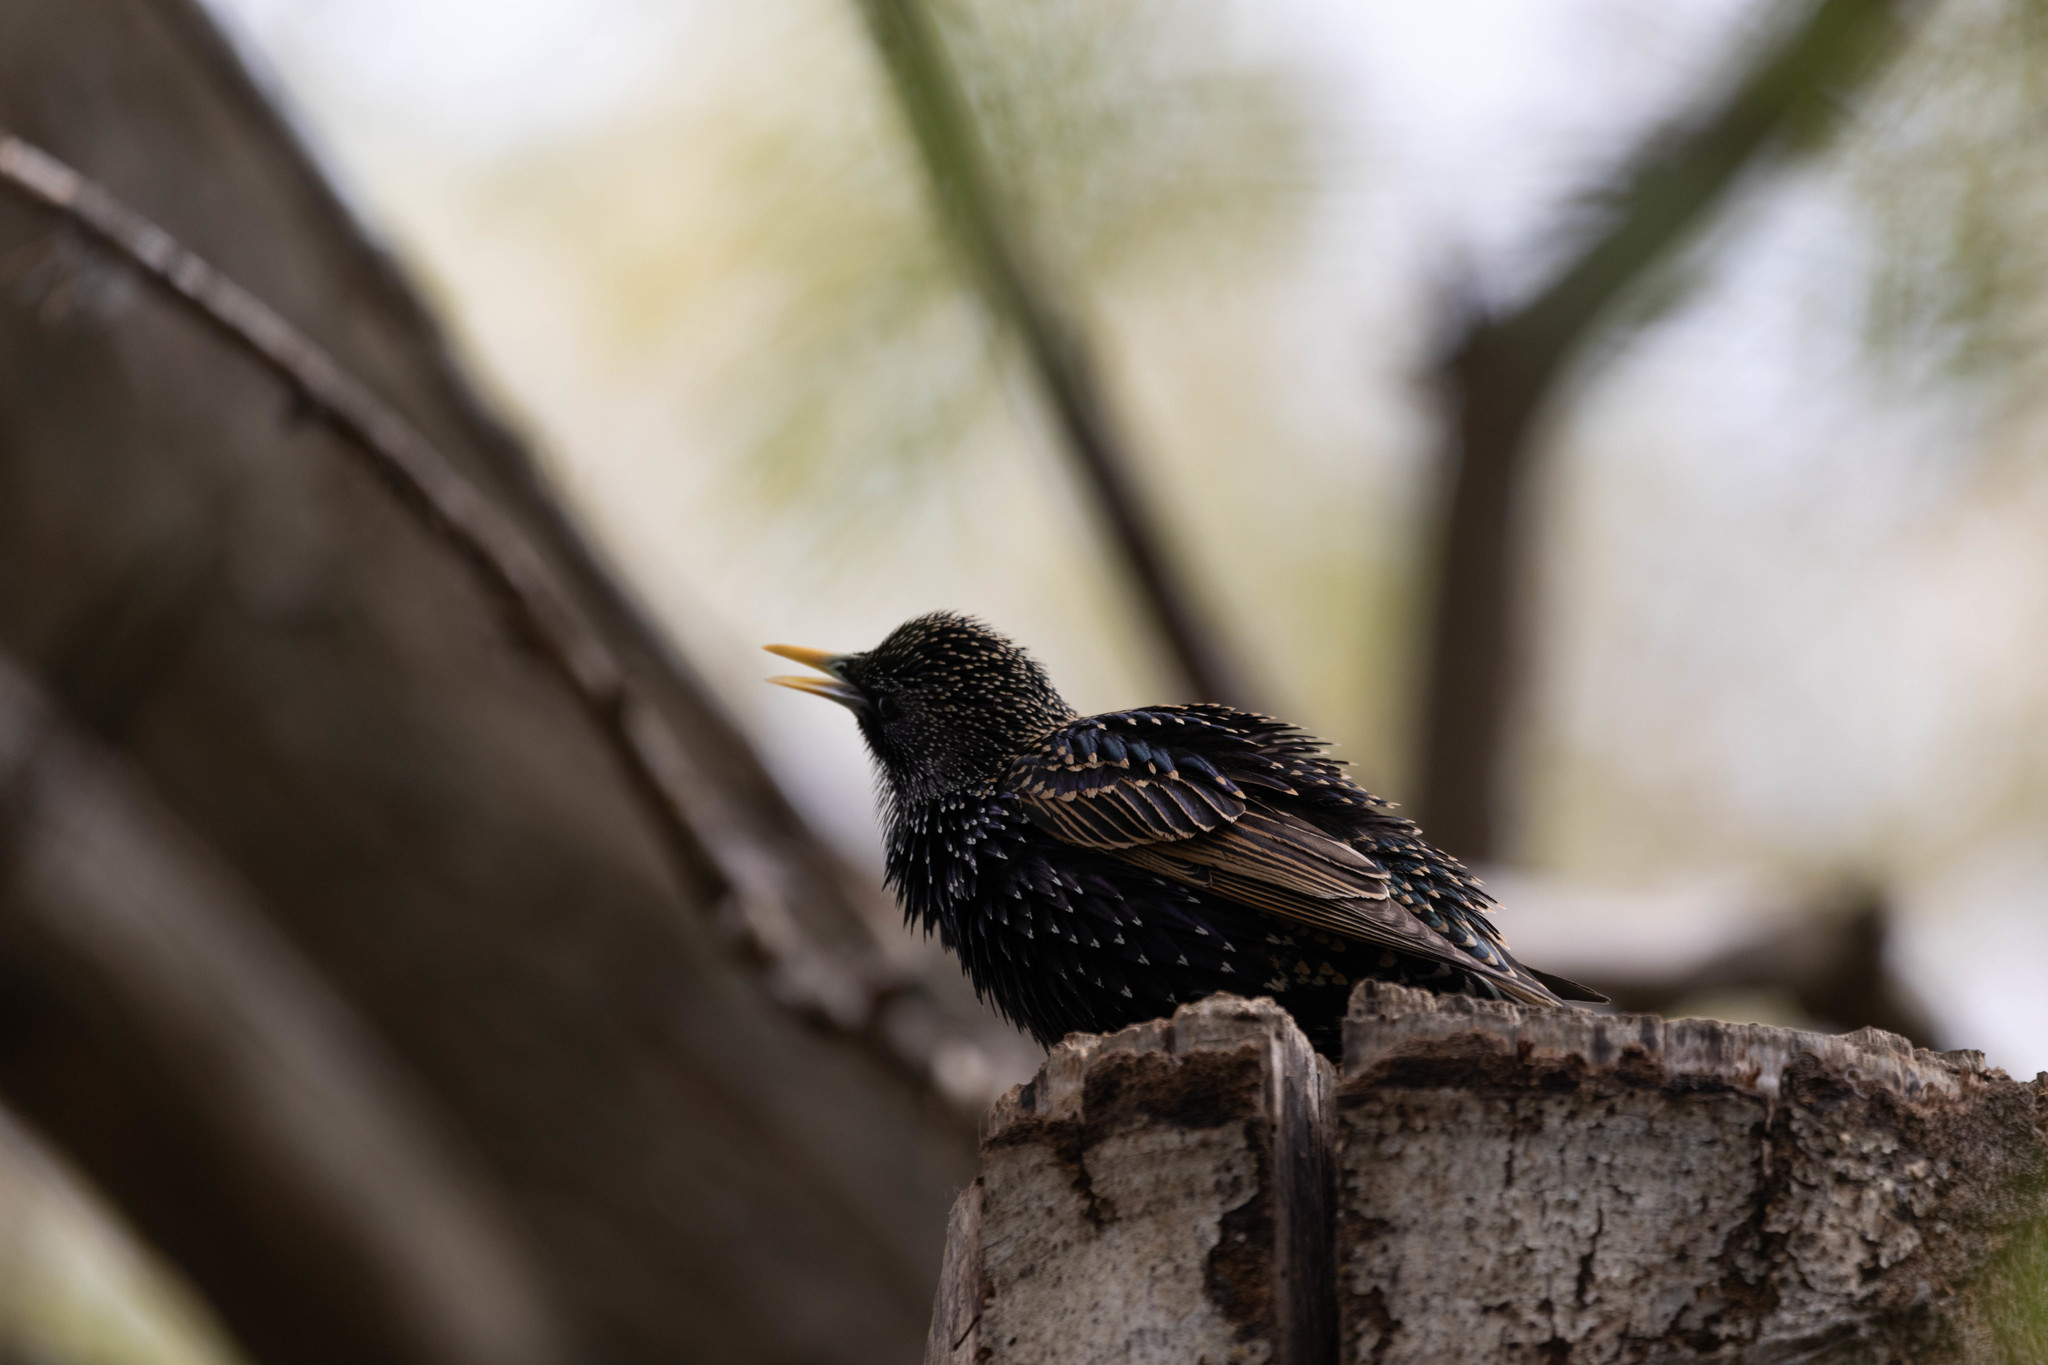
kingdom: Animalia
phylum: Chordata
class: Aves
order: Passeriformes
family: Sturnidae
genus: Sturnus
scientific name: Sturnus vulgaris
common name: Common starling
